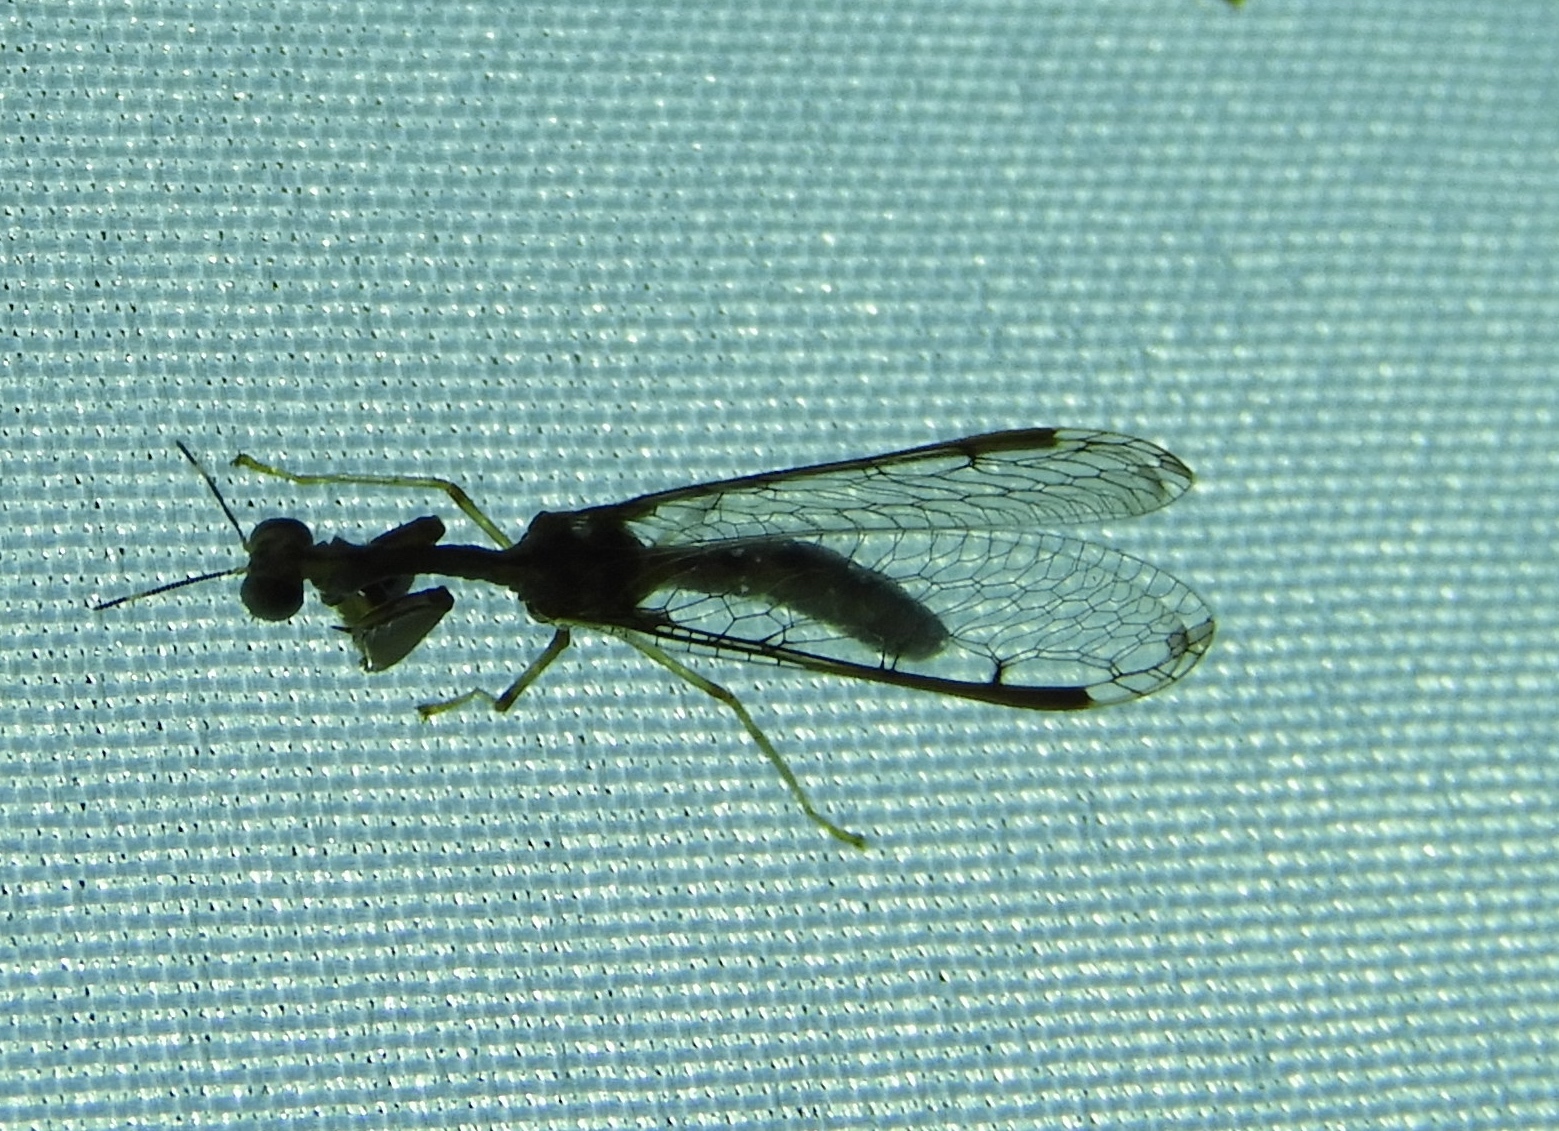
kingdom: Animalia
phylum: Arthropoda
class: Insecta
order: Neuroptera
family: Mantispidae
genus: Dicromantispa
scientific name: Dicromantispa interrupta
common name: Four-spotted mantidfly
